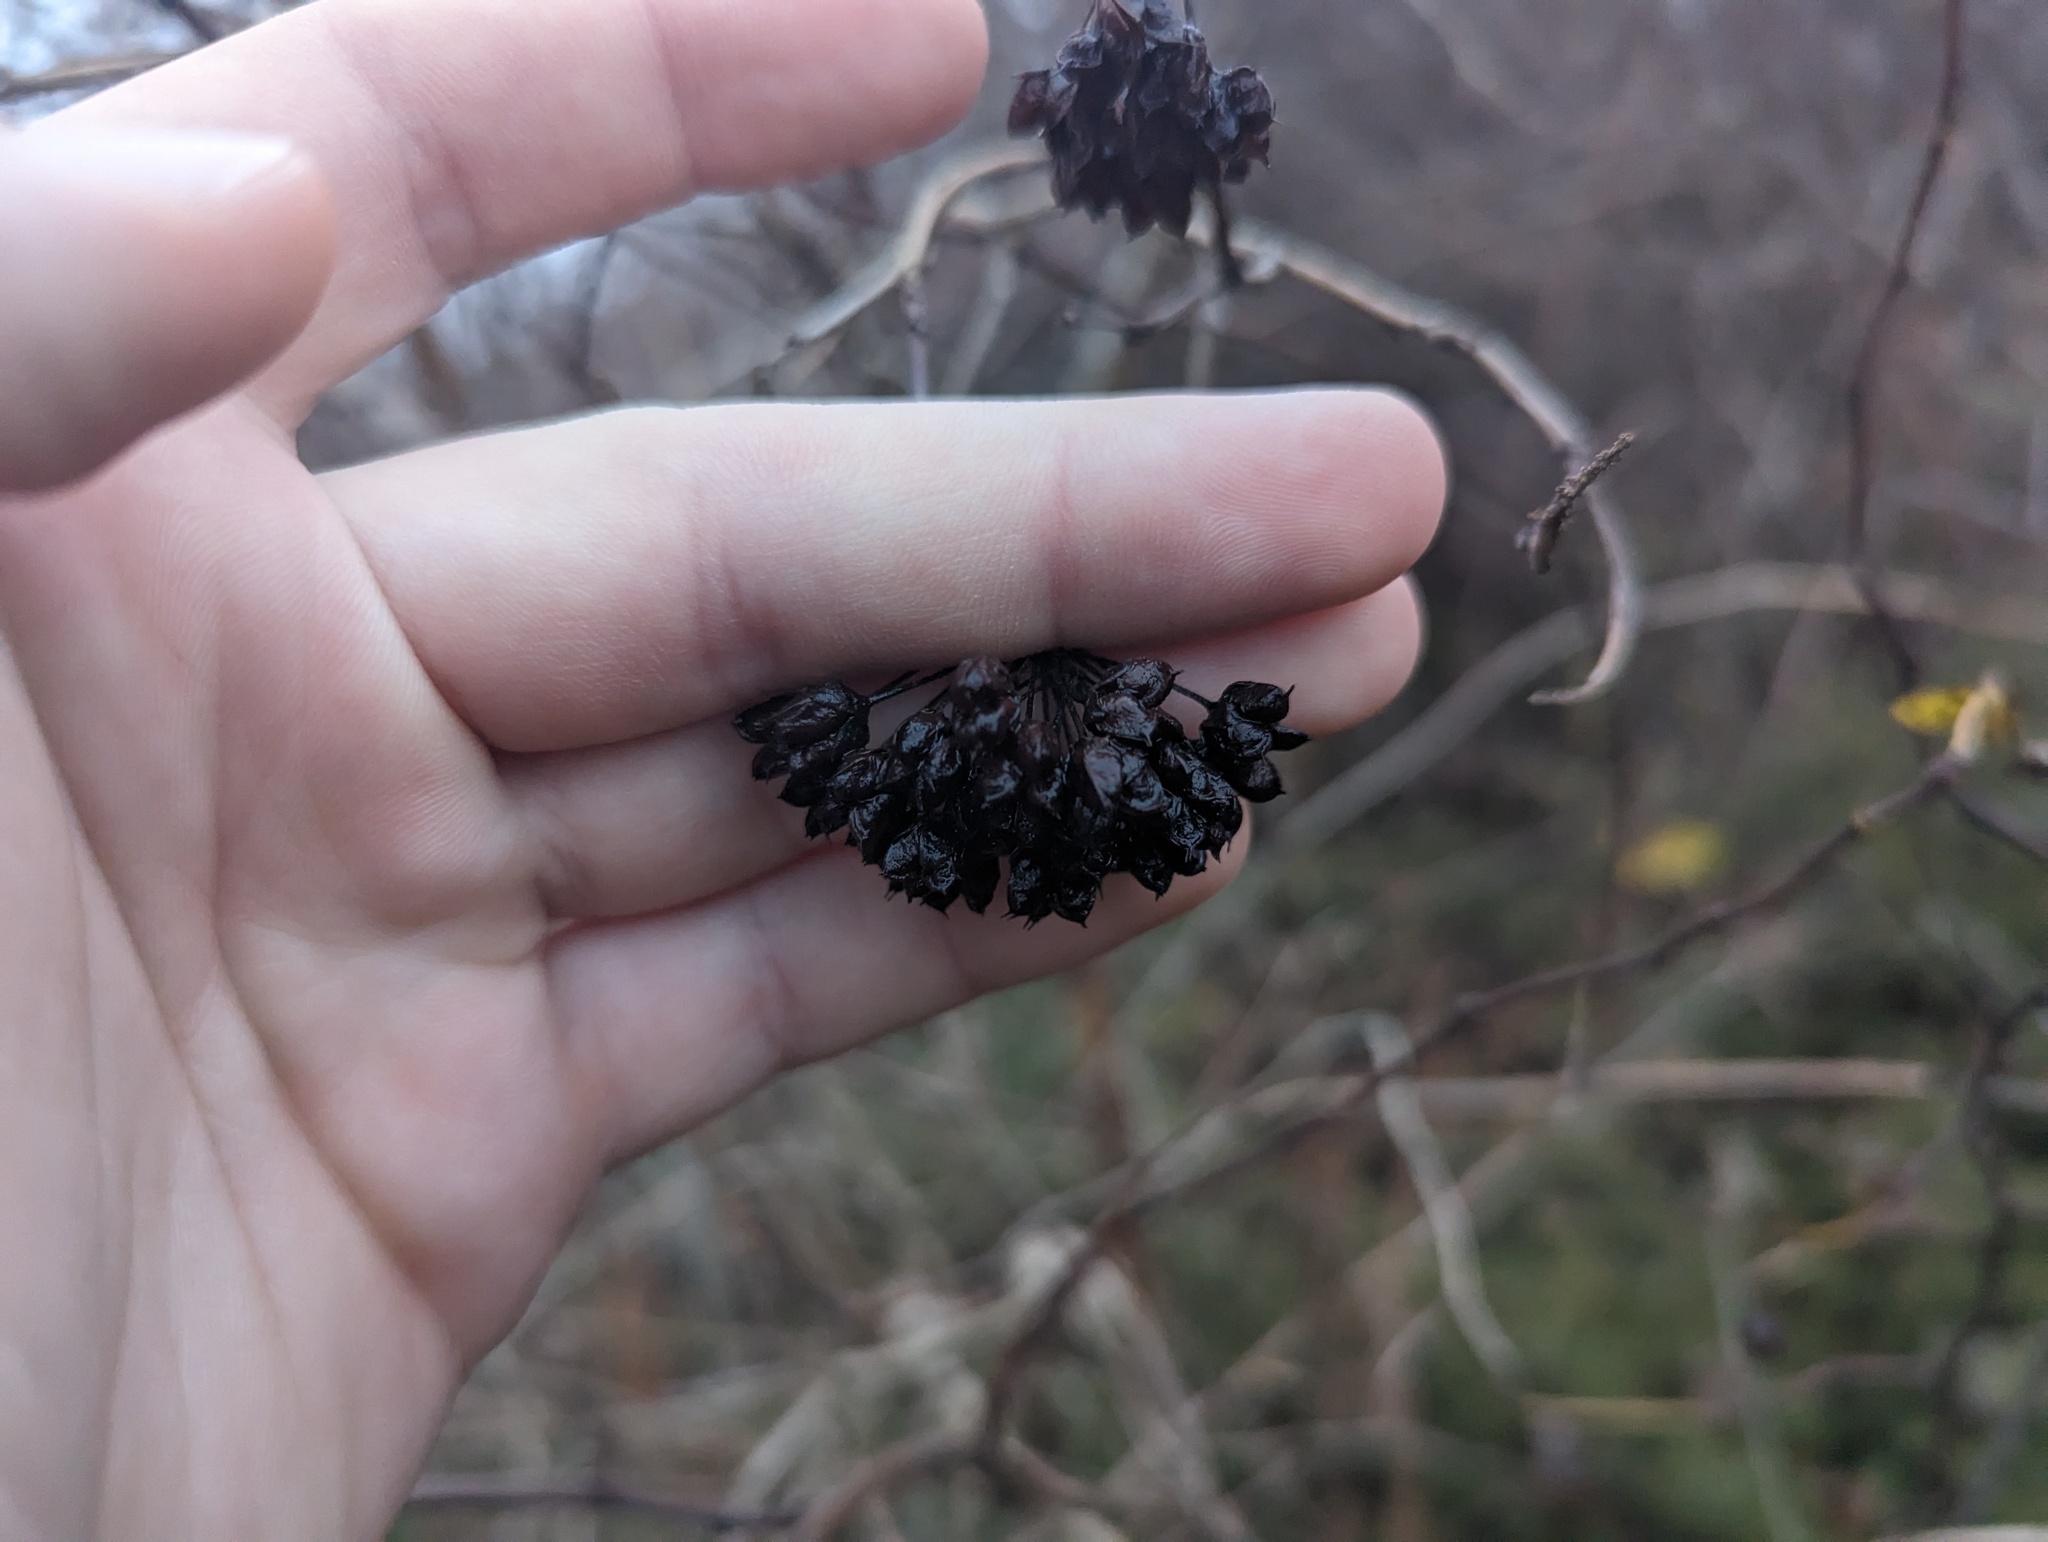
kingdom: Plantae
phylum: Tracheophyta
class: Magnoliopsida
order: Rosales
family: Rosaceae
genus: Physocarpus
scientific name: Physocarpus opulifolius
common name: Ninebark
